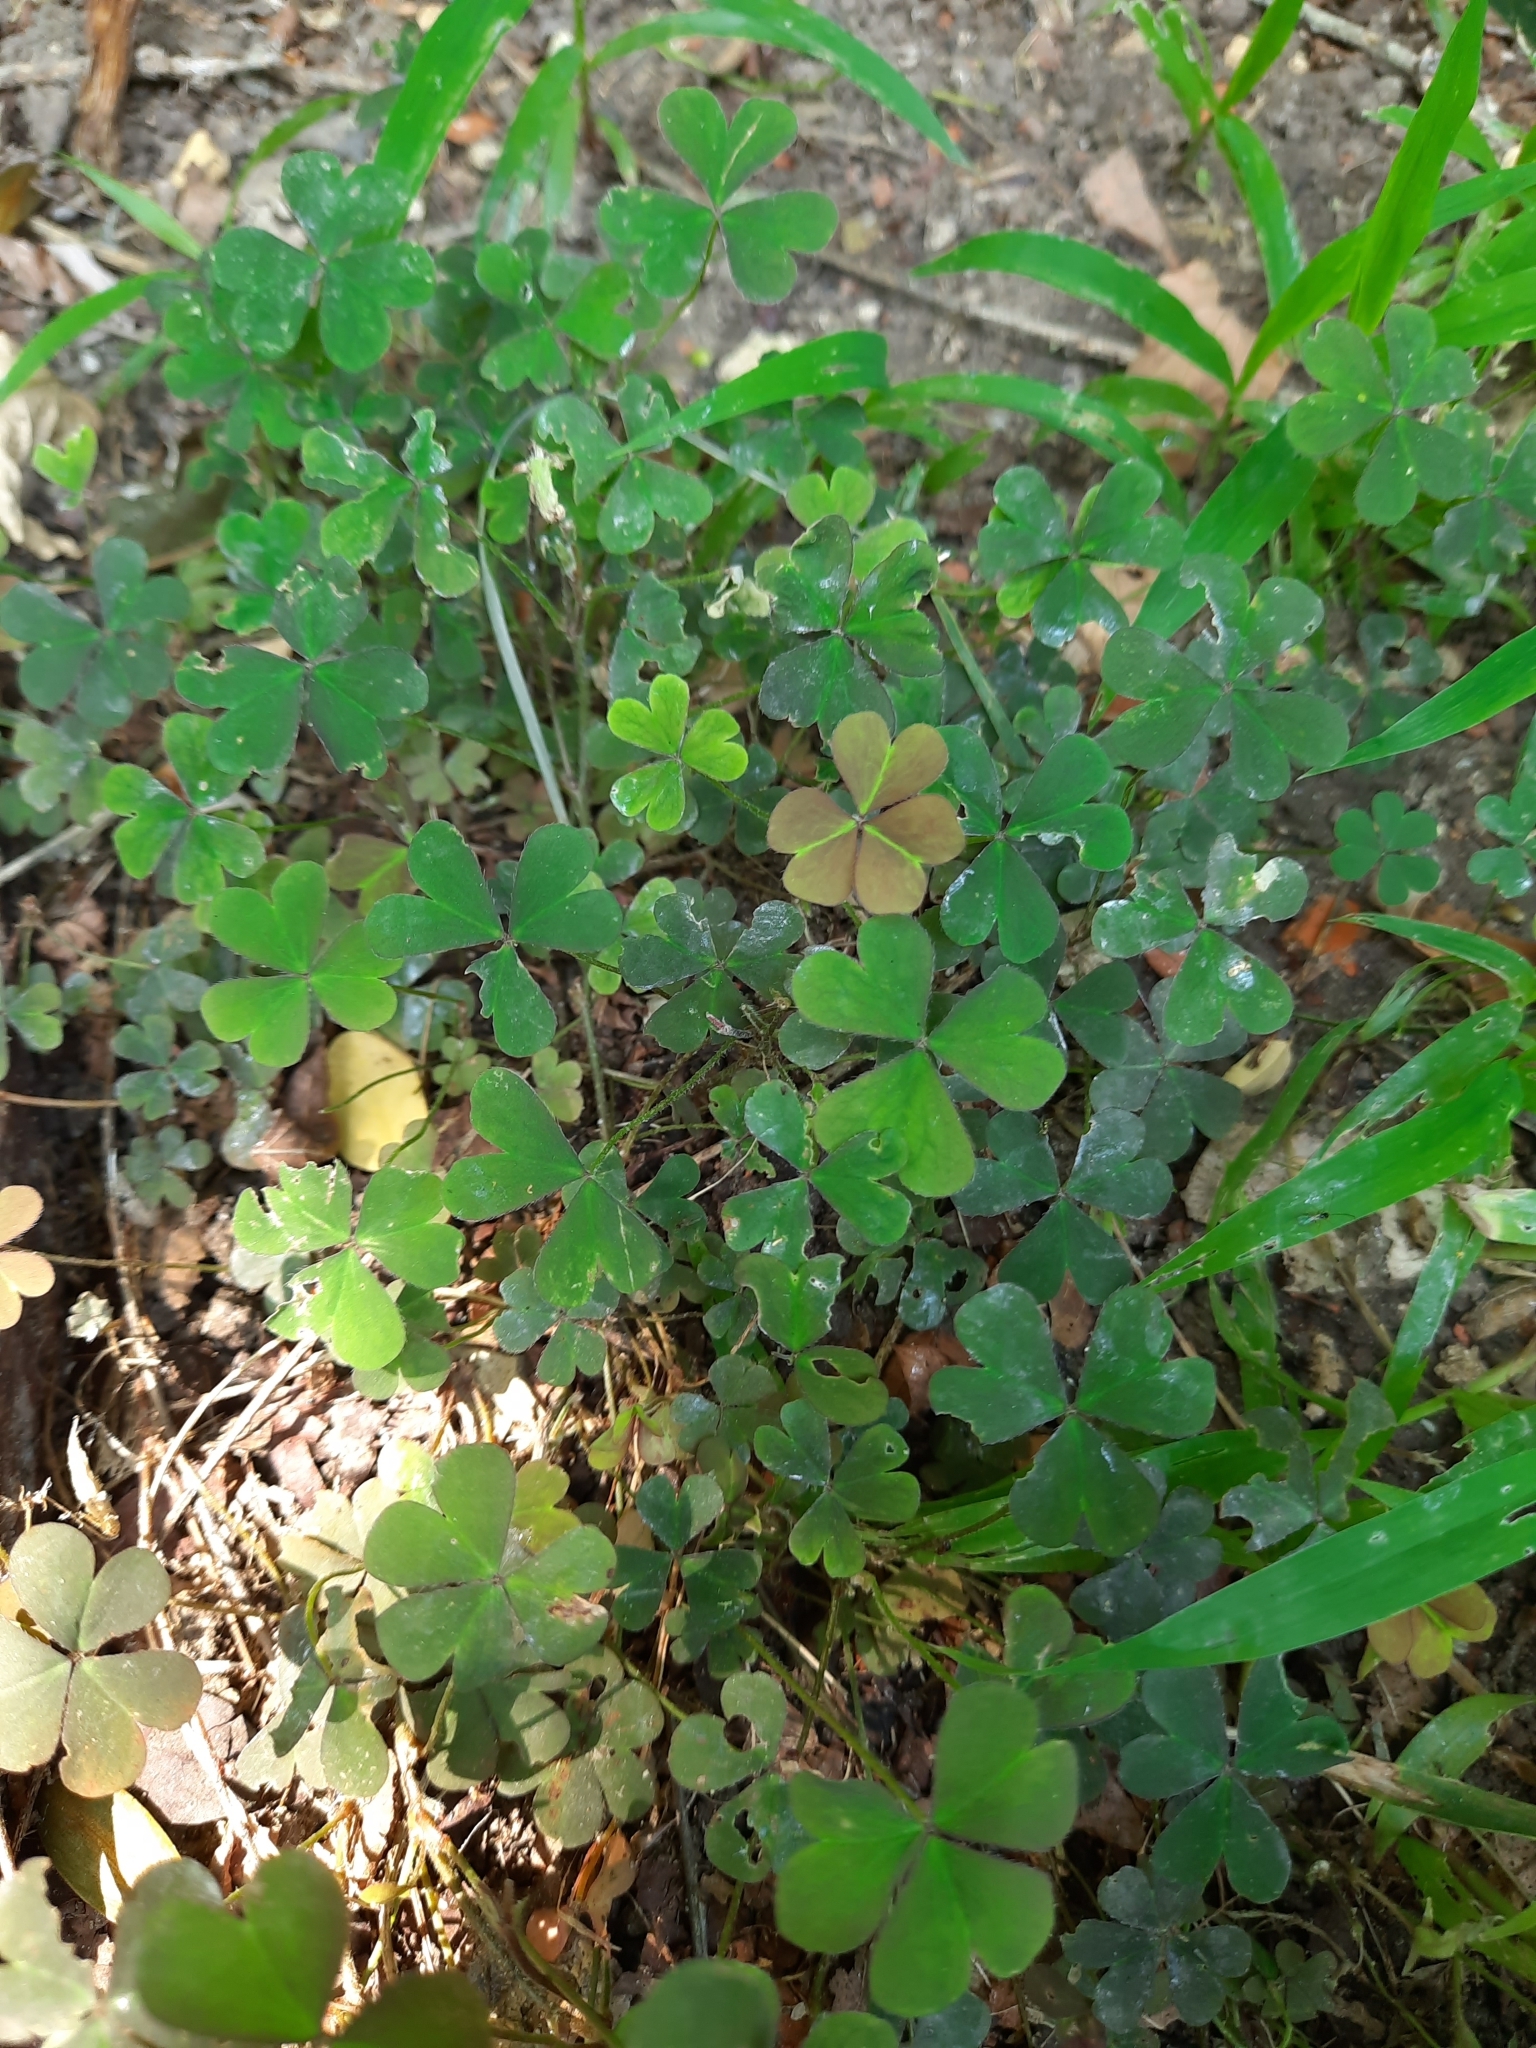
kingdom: Plantae
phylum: Tracheophyta
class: Magnoliopsida
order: Oxalidales
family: Oxalidaceae
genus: Oxalis
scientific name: Oxalis corniculata
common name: Procumbent yellow-sorrel
